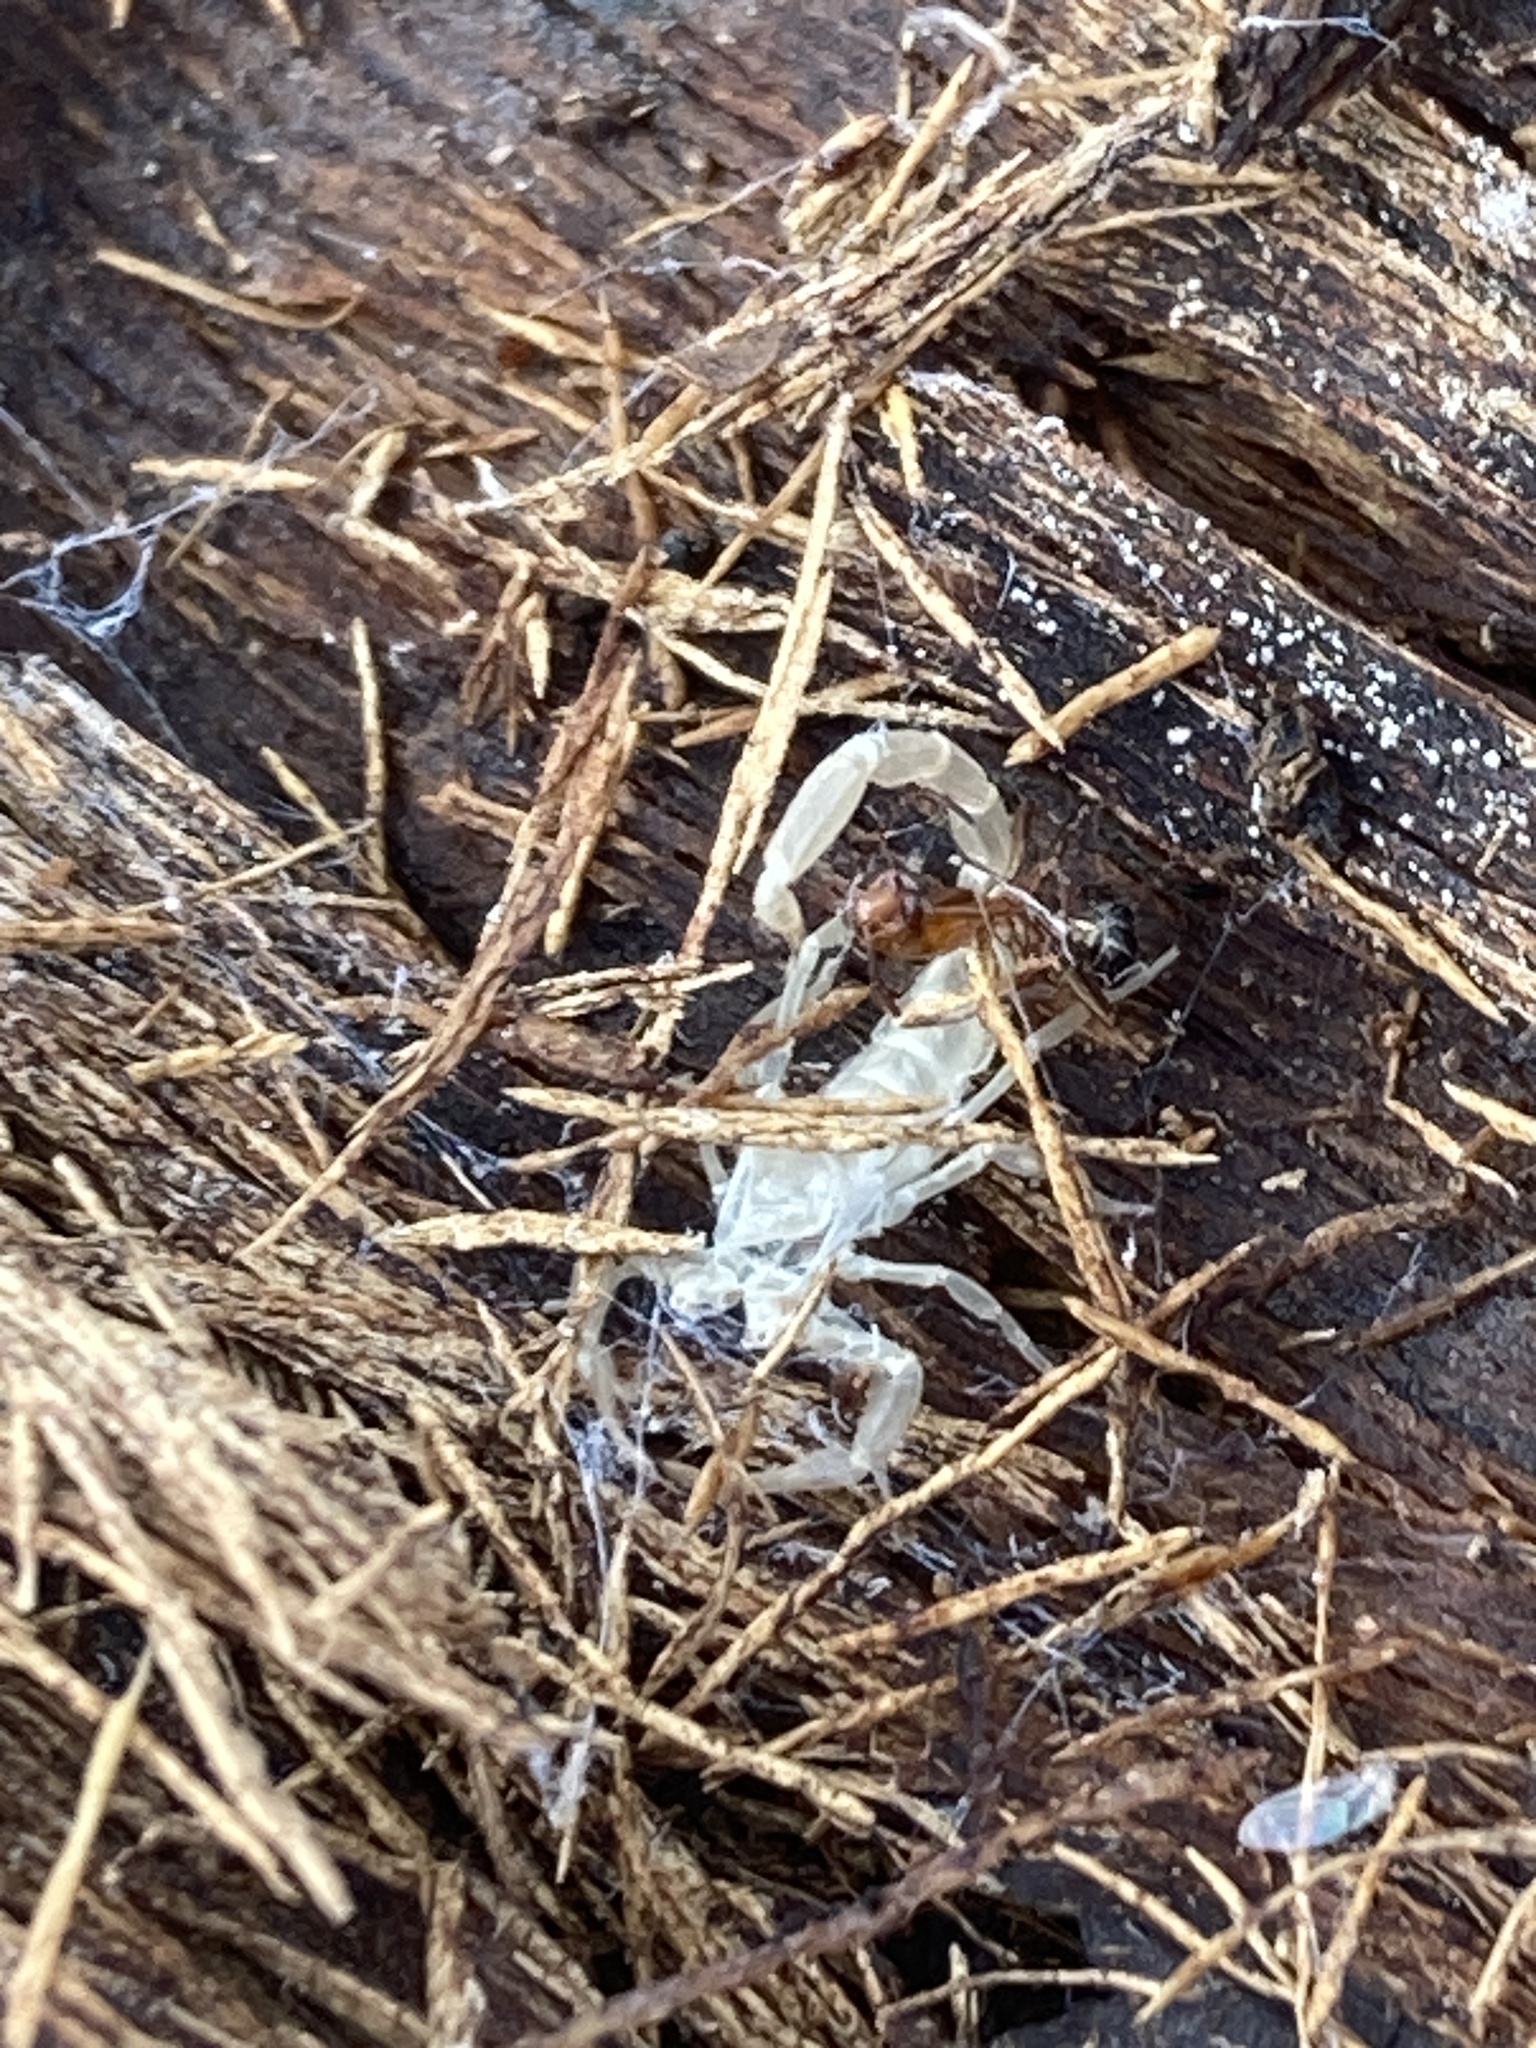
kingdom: Animalia
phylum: Arthropoda
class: Arachnida
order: Scorpiones
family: Buthidae
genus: Centruroides
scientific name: Centruroides vittatus
